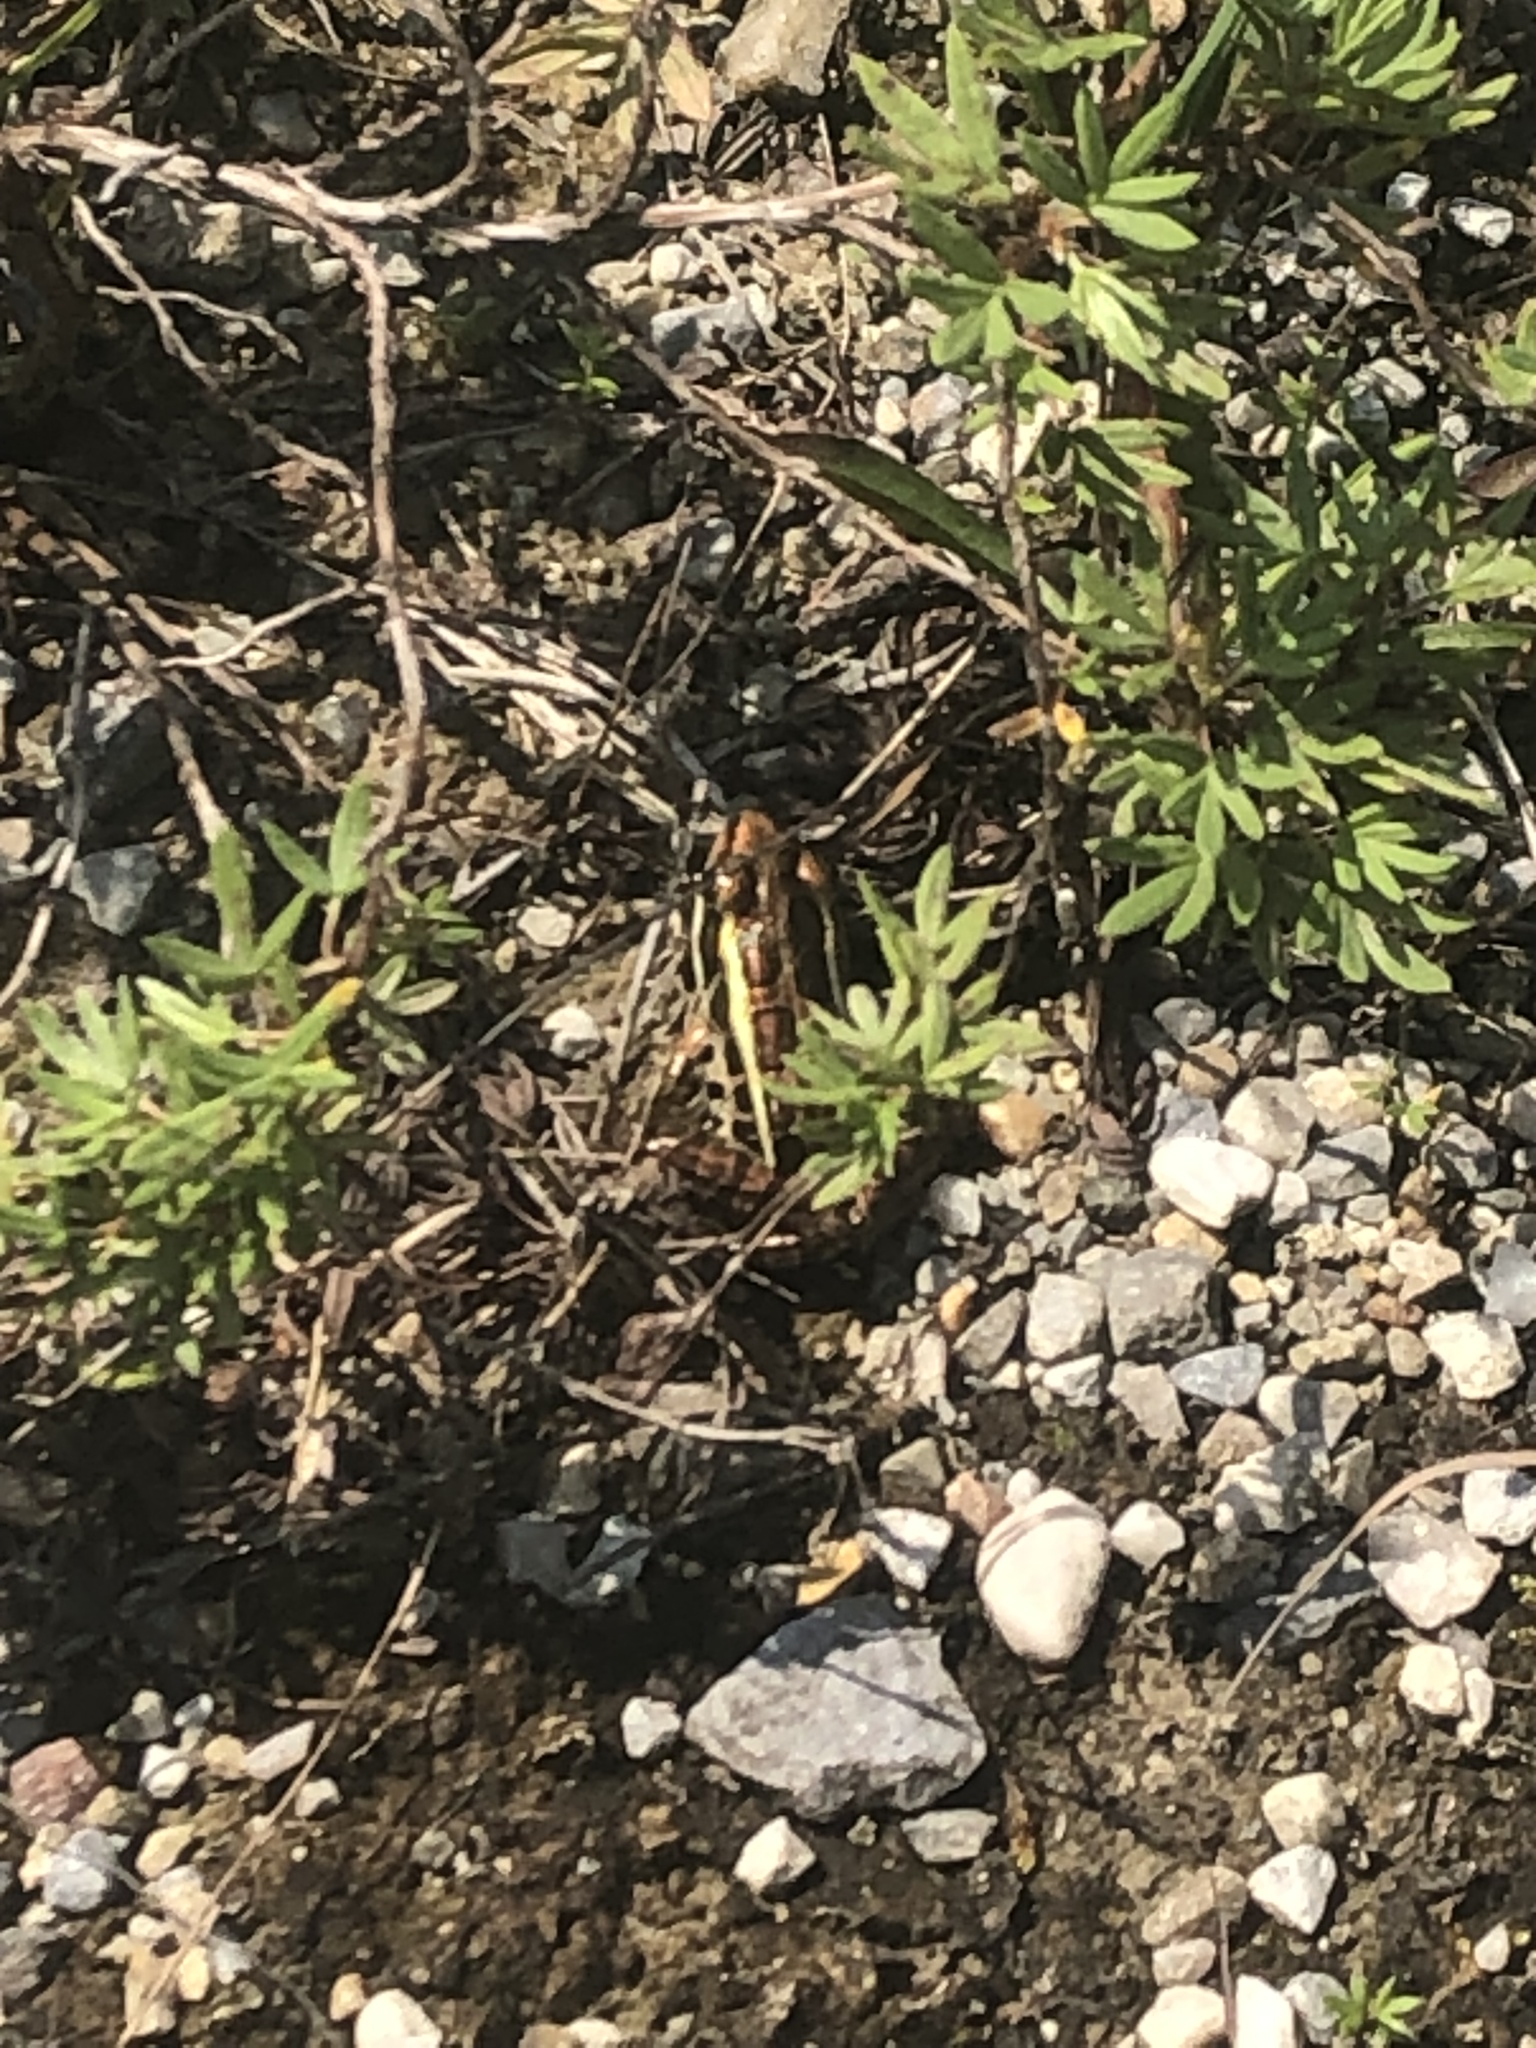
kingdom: Animalia
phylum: Chordata
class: Amphibia
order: Anura
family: Ranidae
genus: Lithobates
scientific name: Lithobates palustris
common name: Pickerel frog
